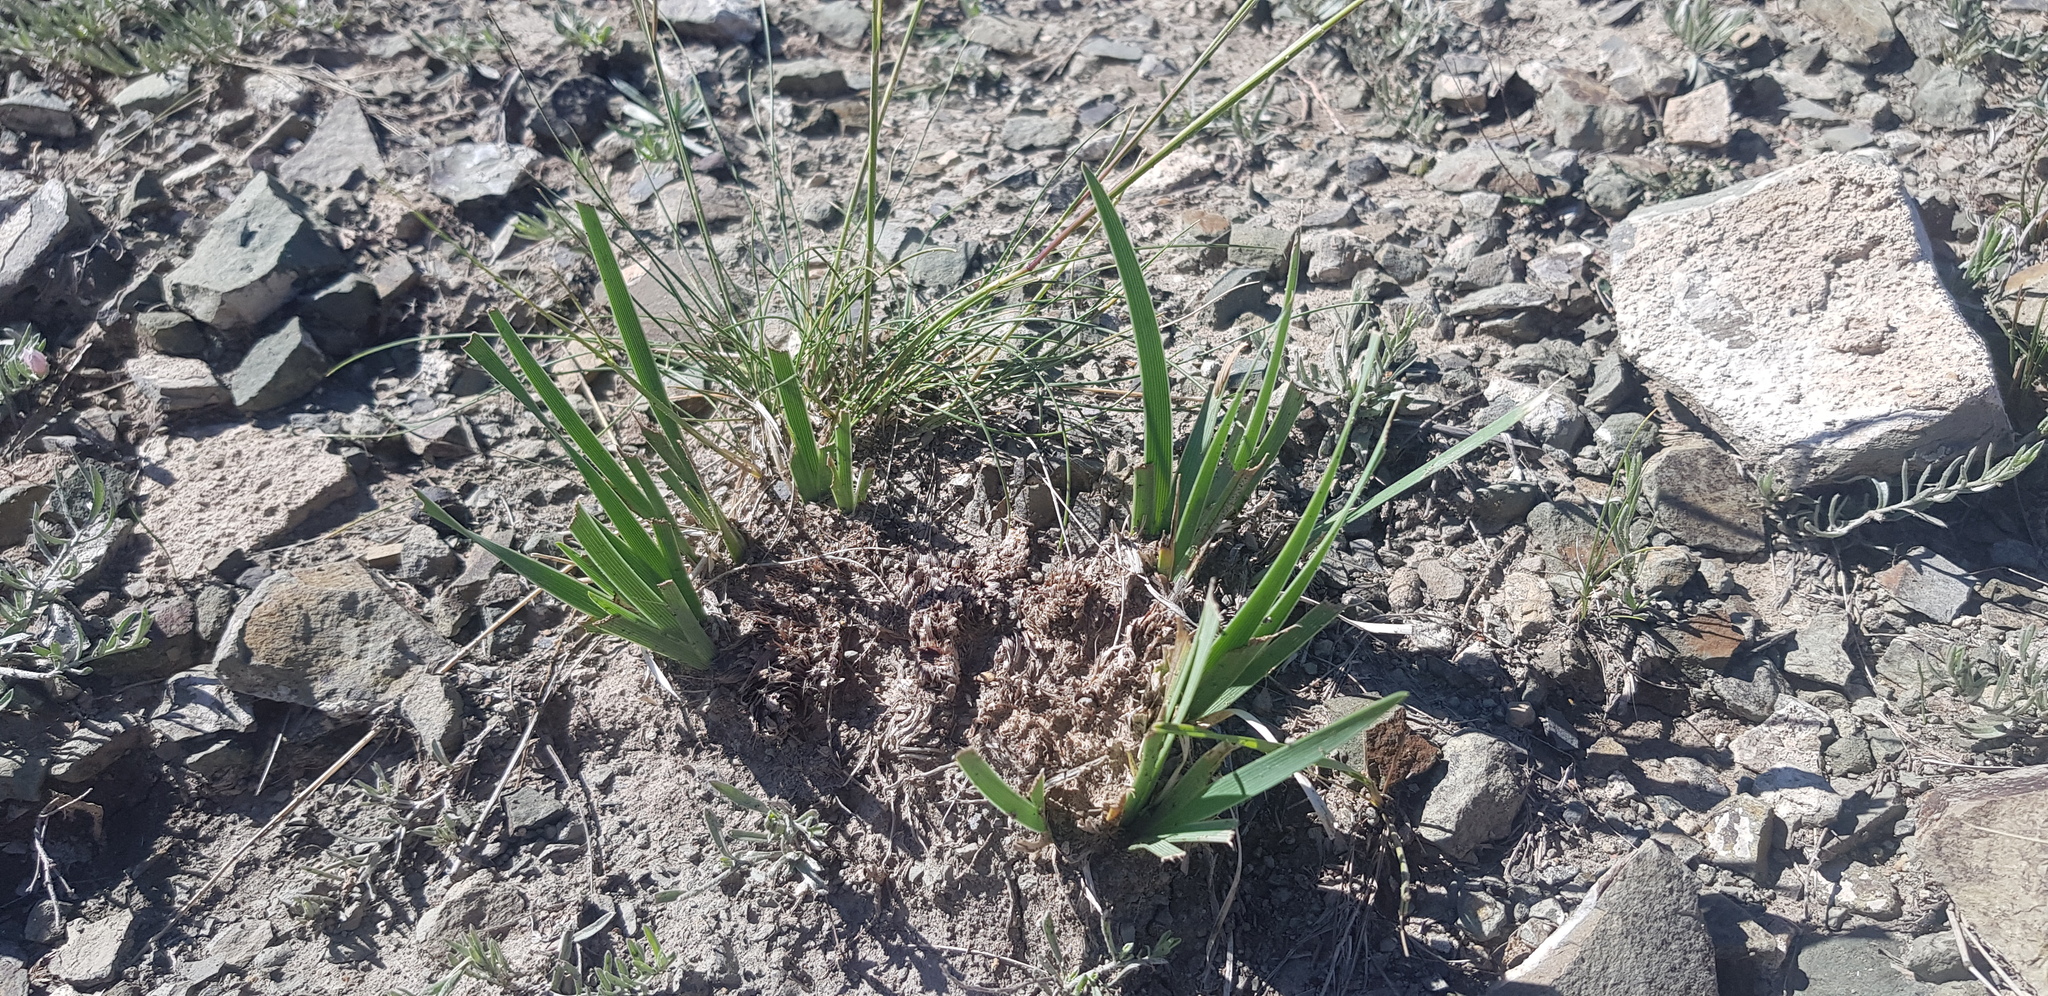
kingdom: Plantae
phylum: Tracheophyta
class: Liliopsida
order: Asparagales
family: Iridaceae
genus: Iris
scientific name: Iris lactea
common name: White-flower chinese iris
